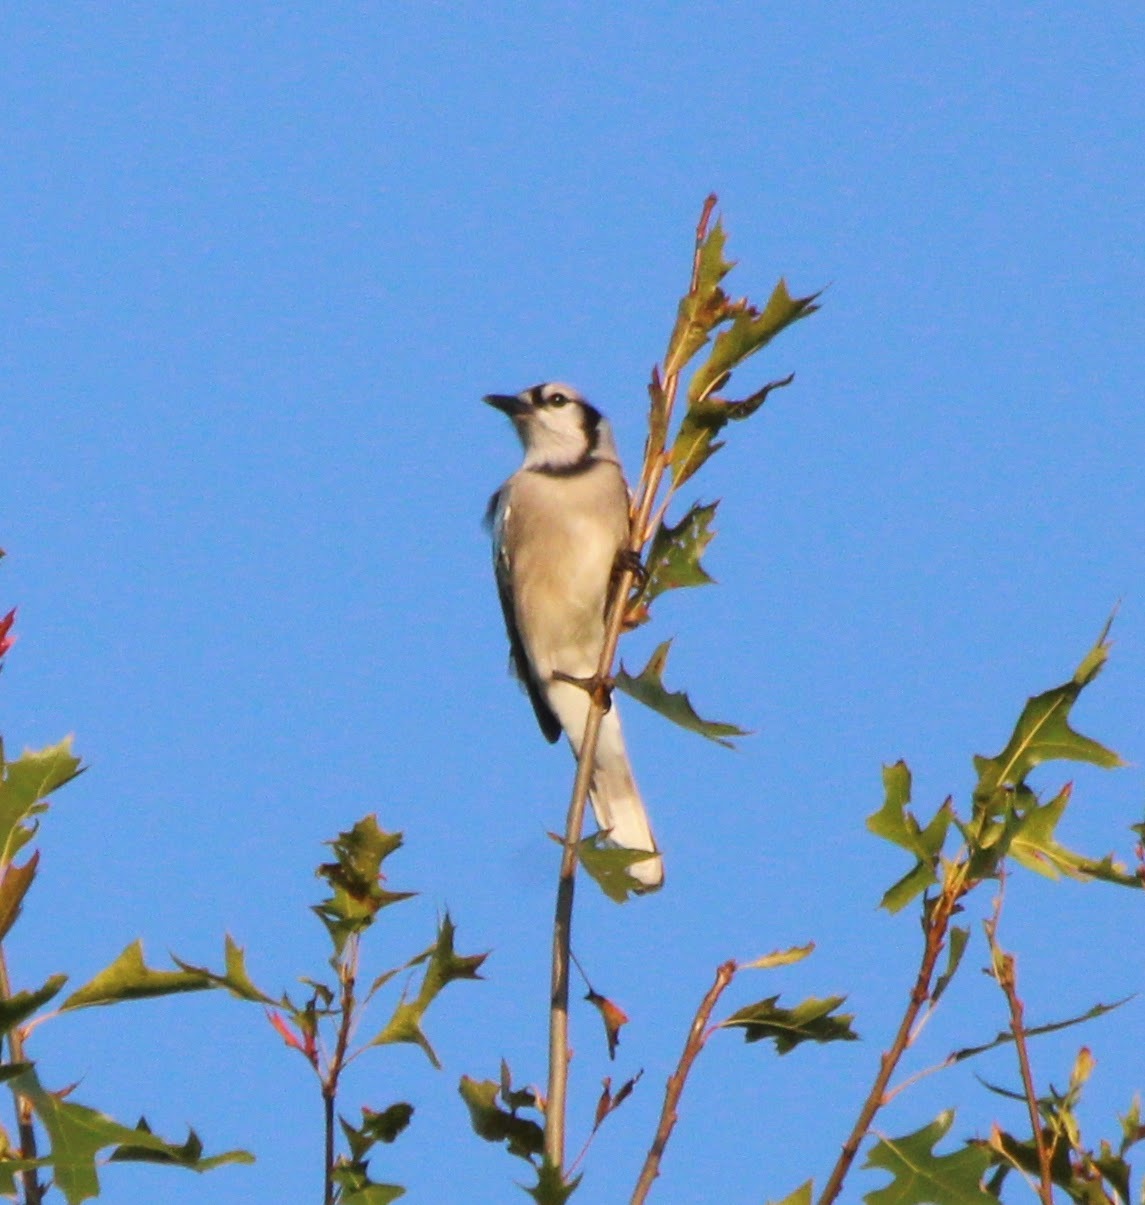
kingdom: Animalia
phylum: Chordata
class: Aves
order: Passeriformes
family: Corvidae
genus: Cyanocitta
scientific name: Cyanocitta cristata
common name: Blue jay
